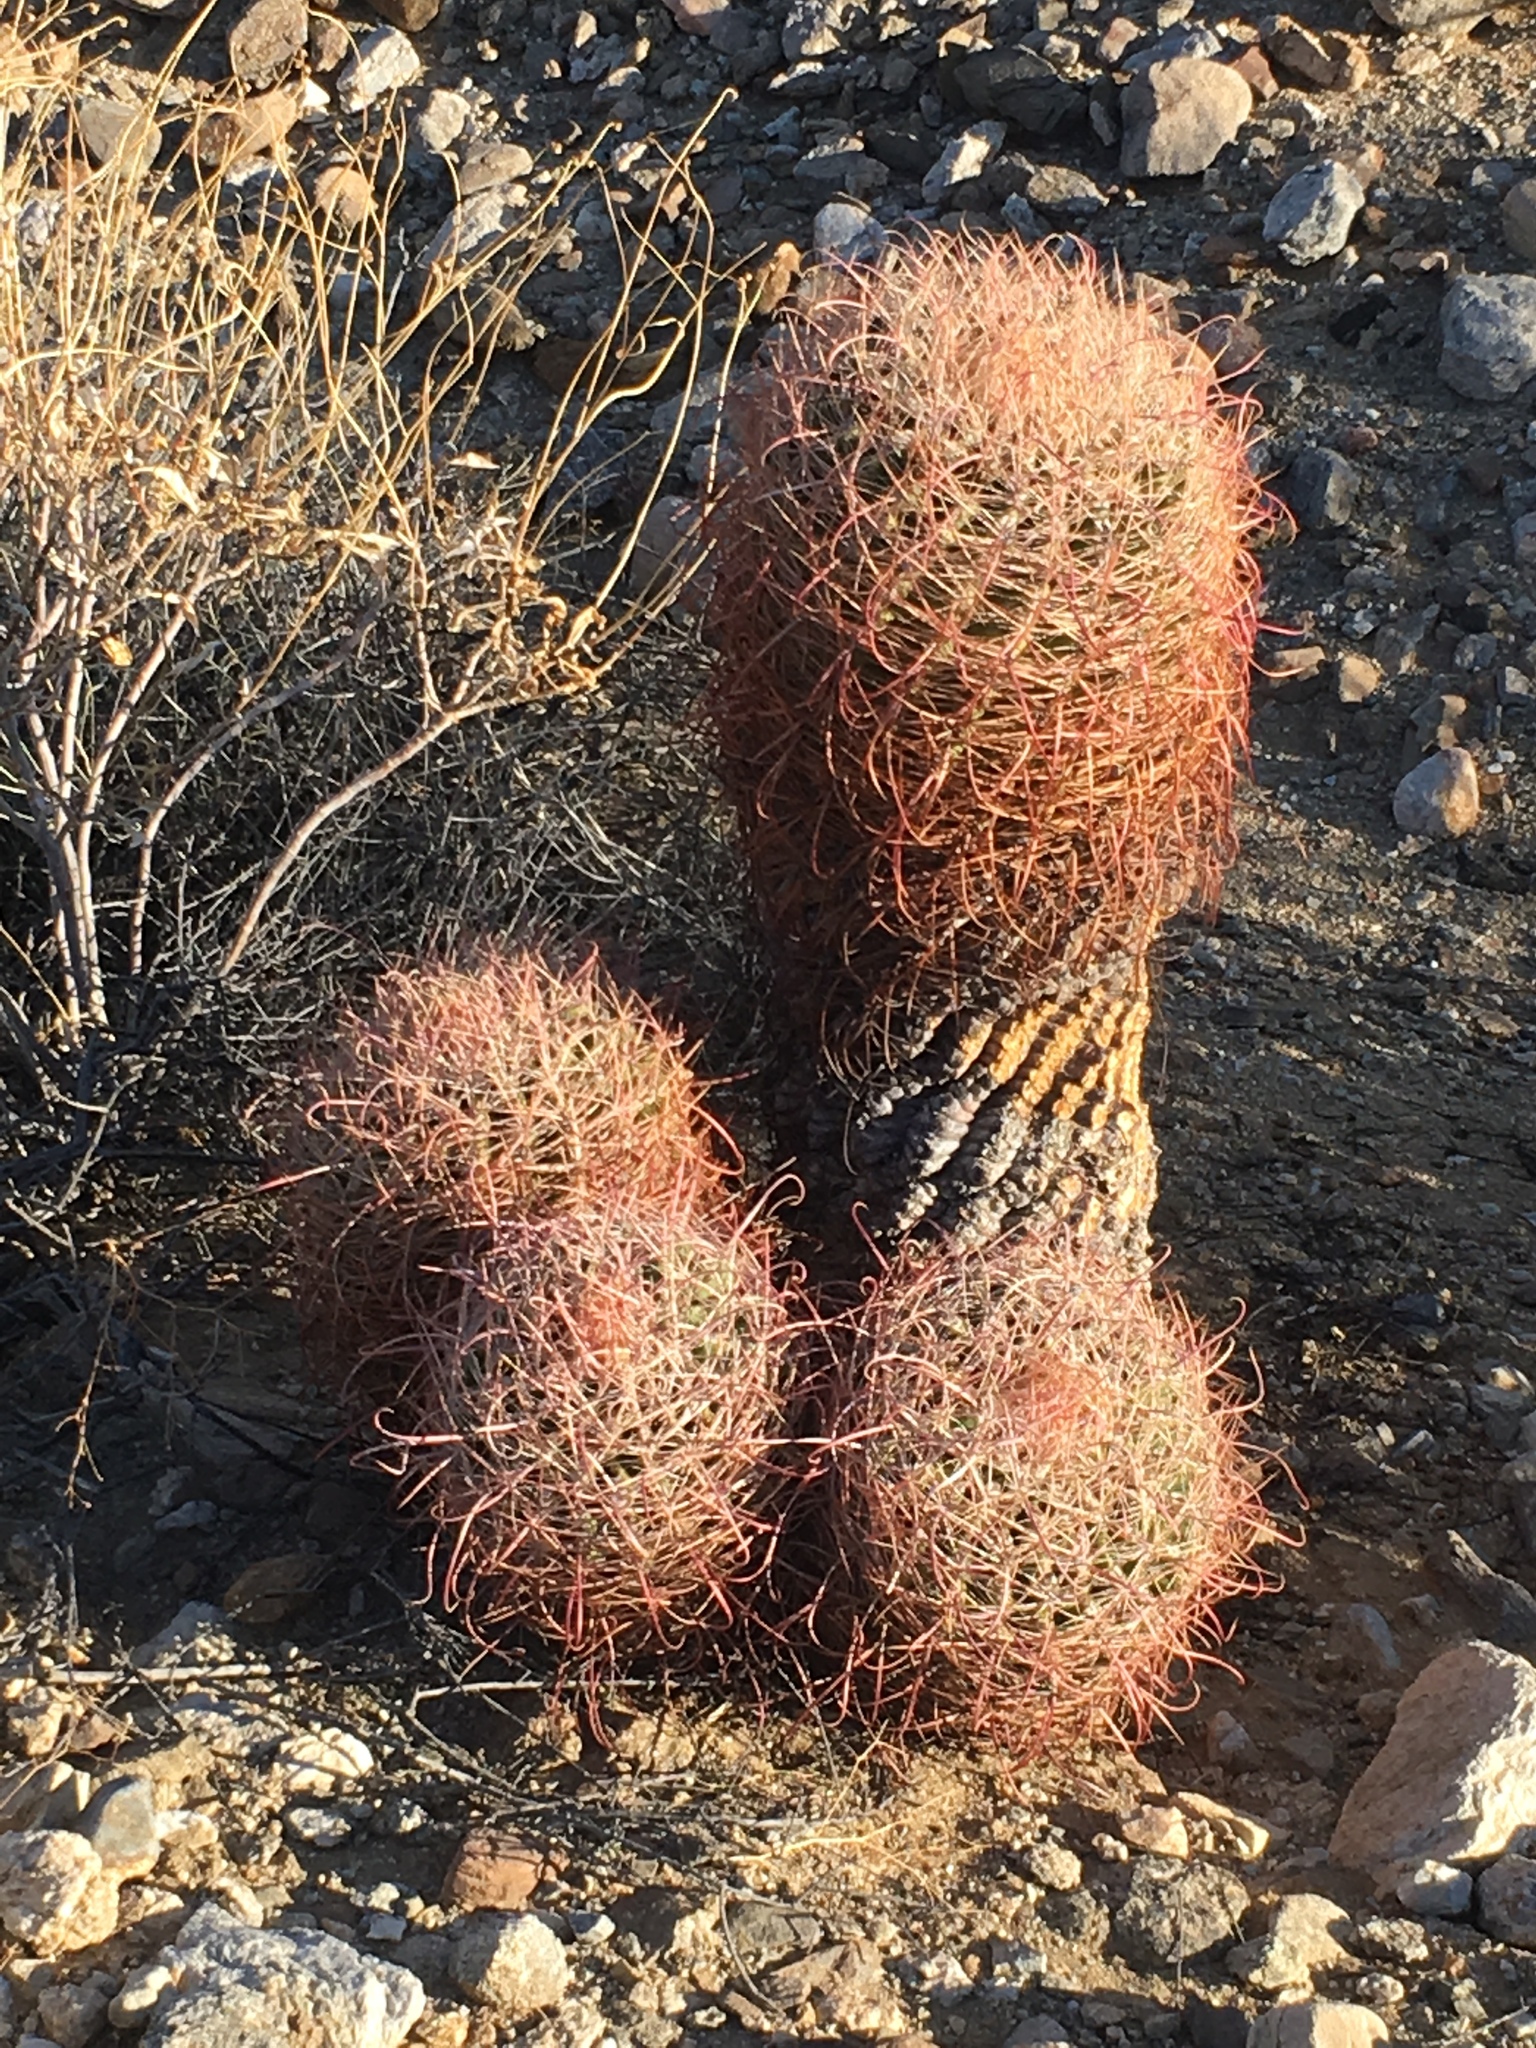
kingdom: Plantae
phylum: Tracheophyta
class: Magnoliopsida
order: Caryophyllales
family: Cactaceae
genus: Ferocactus
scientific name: Ferocactus cylindraceus
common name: California barrel cactus
